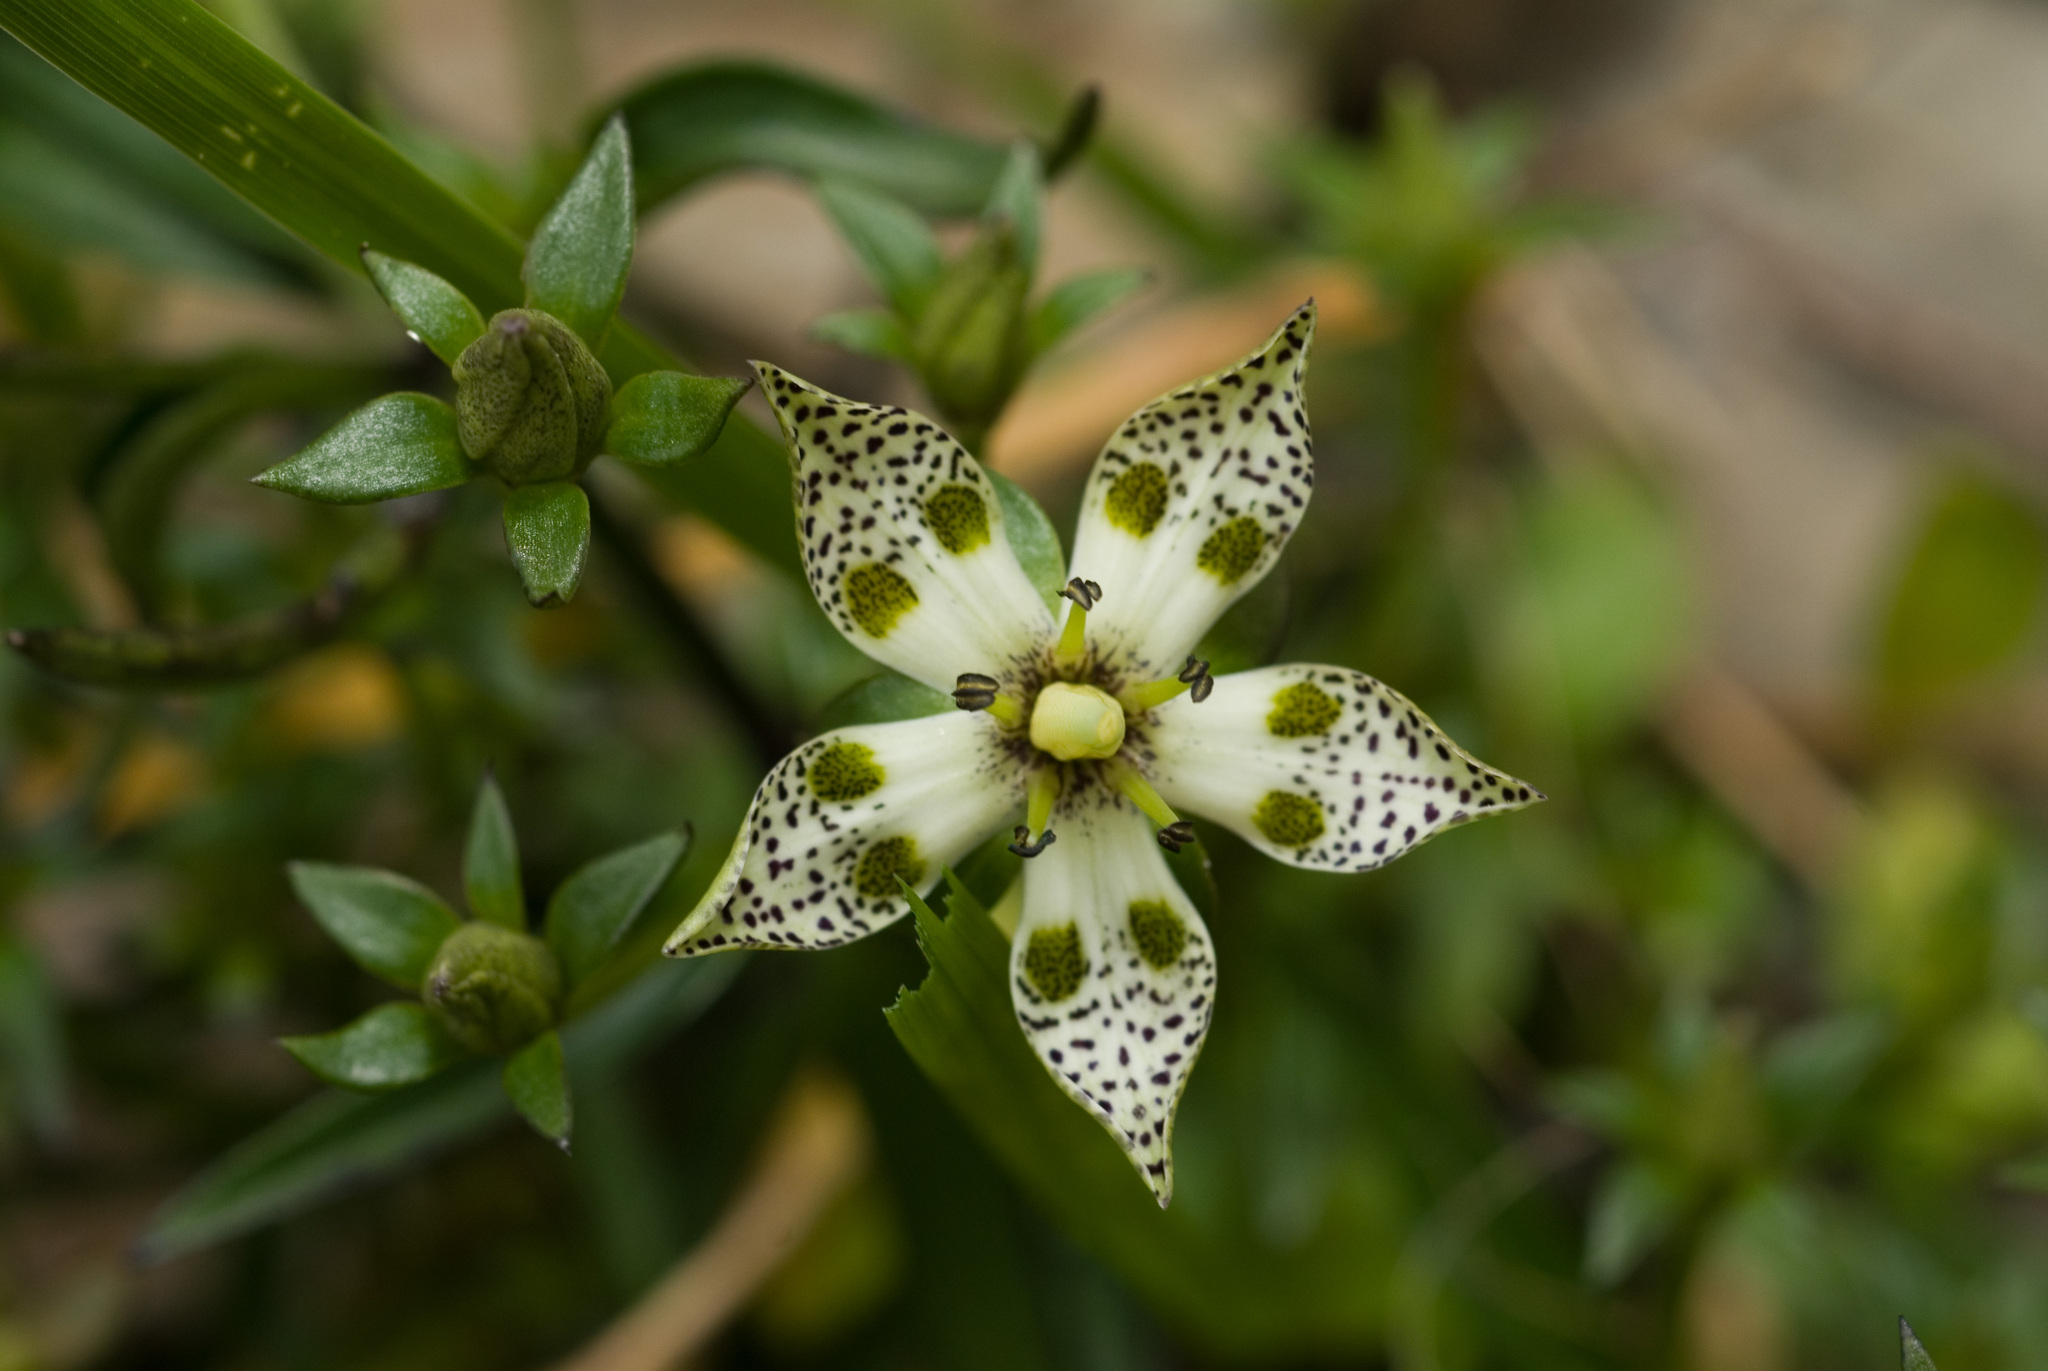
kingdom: Plantae
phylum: Tracheophyta
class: Magnoliopsida
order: Gentianales
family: Gentianaceae
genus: Swertia
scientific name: Swertia tozanensis
